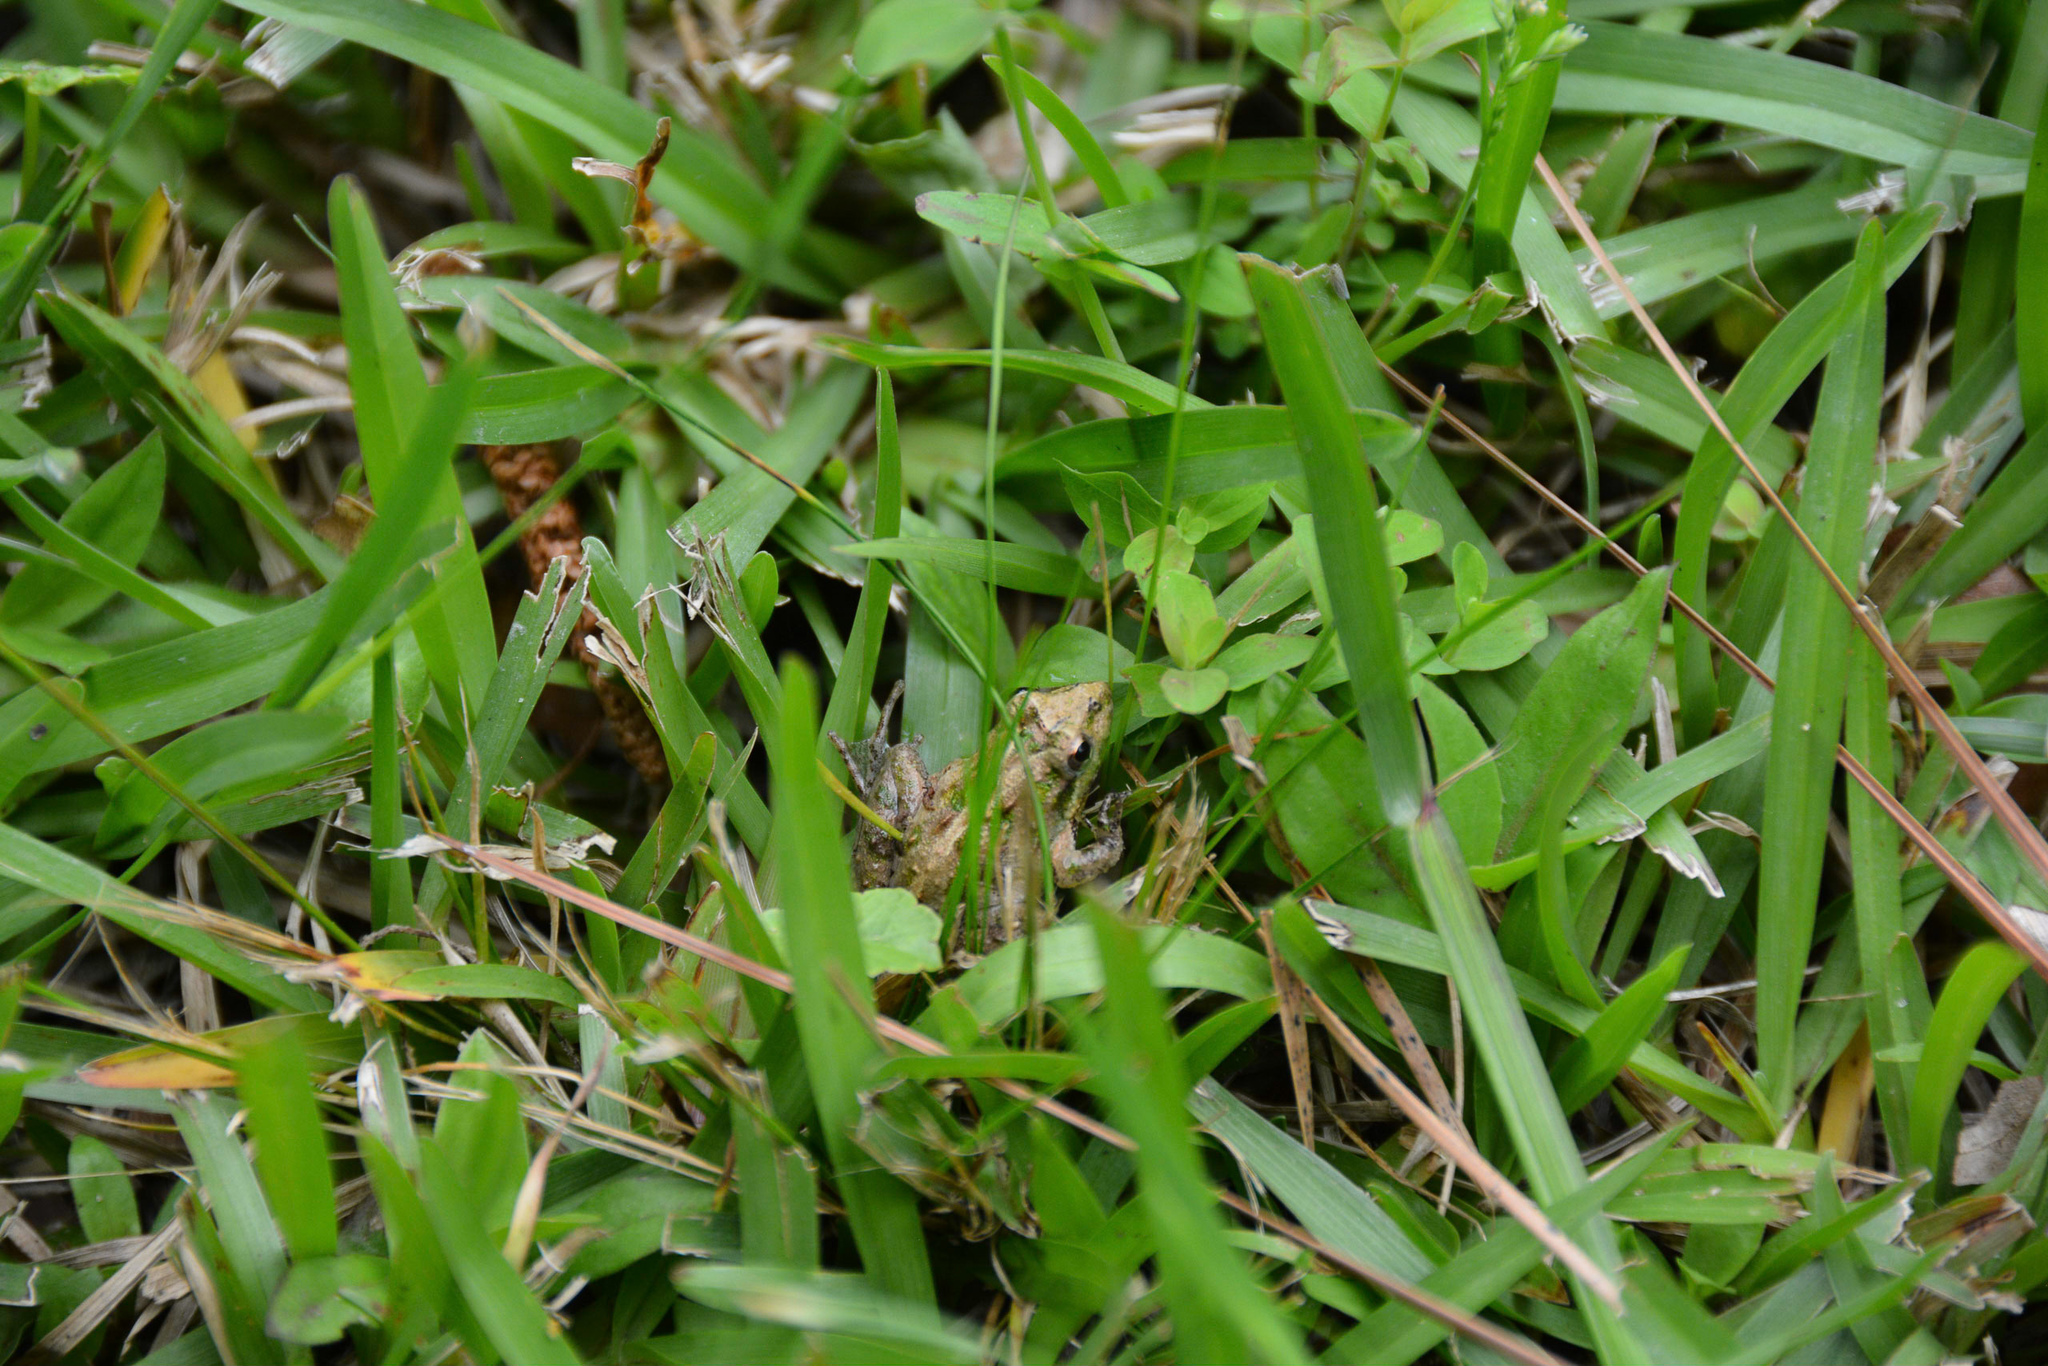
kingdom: Animalia
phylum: Chordata
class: Amphibia
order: Anura
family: Hylidae
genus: Acris
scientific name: Acris gryllus
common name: Southern cricket frog
